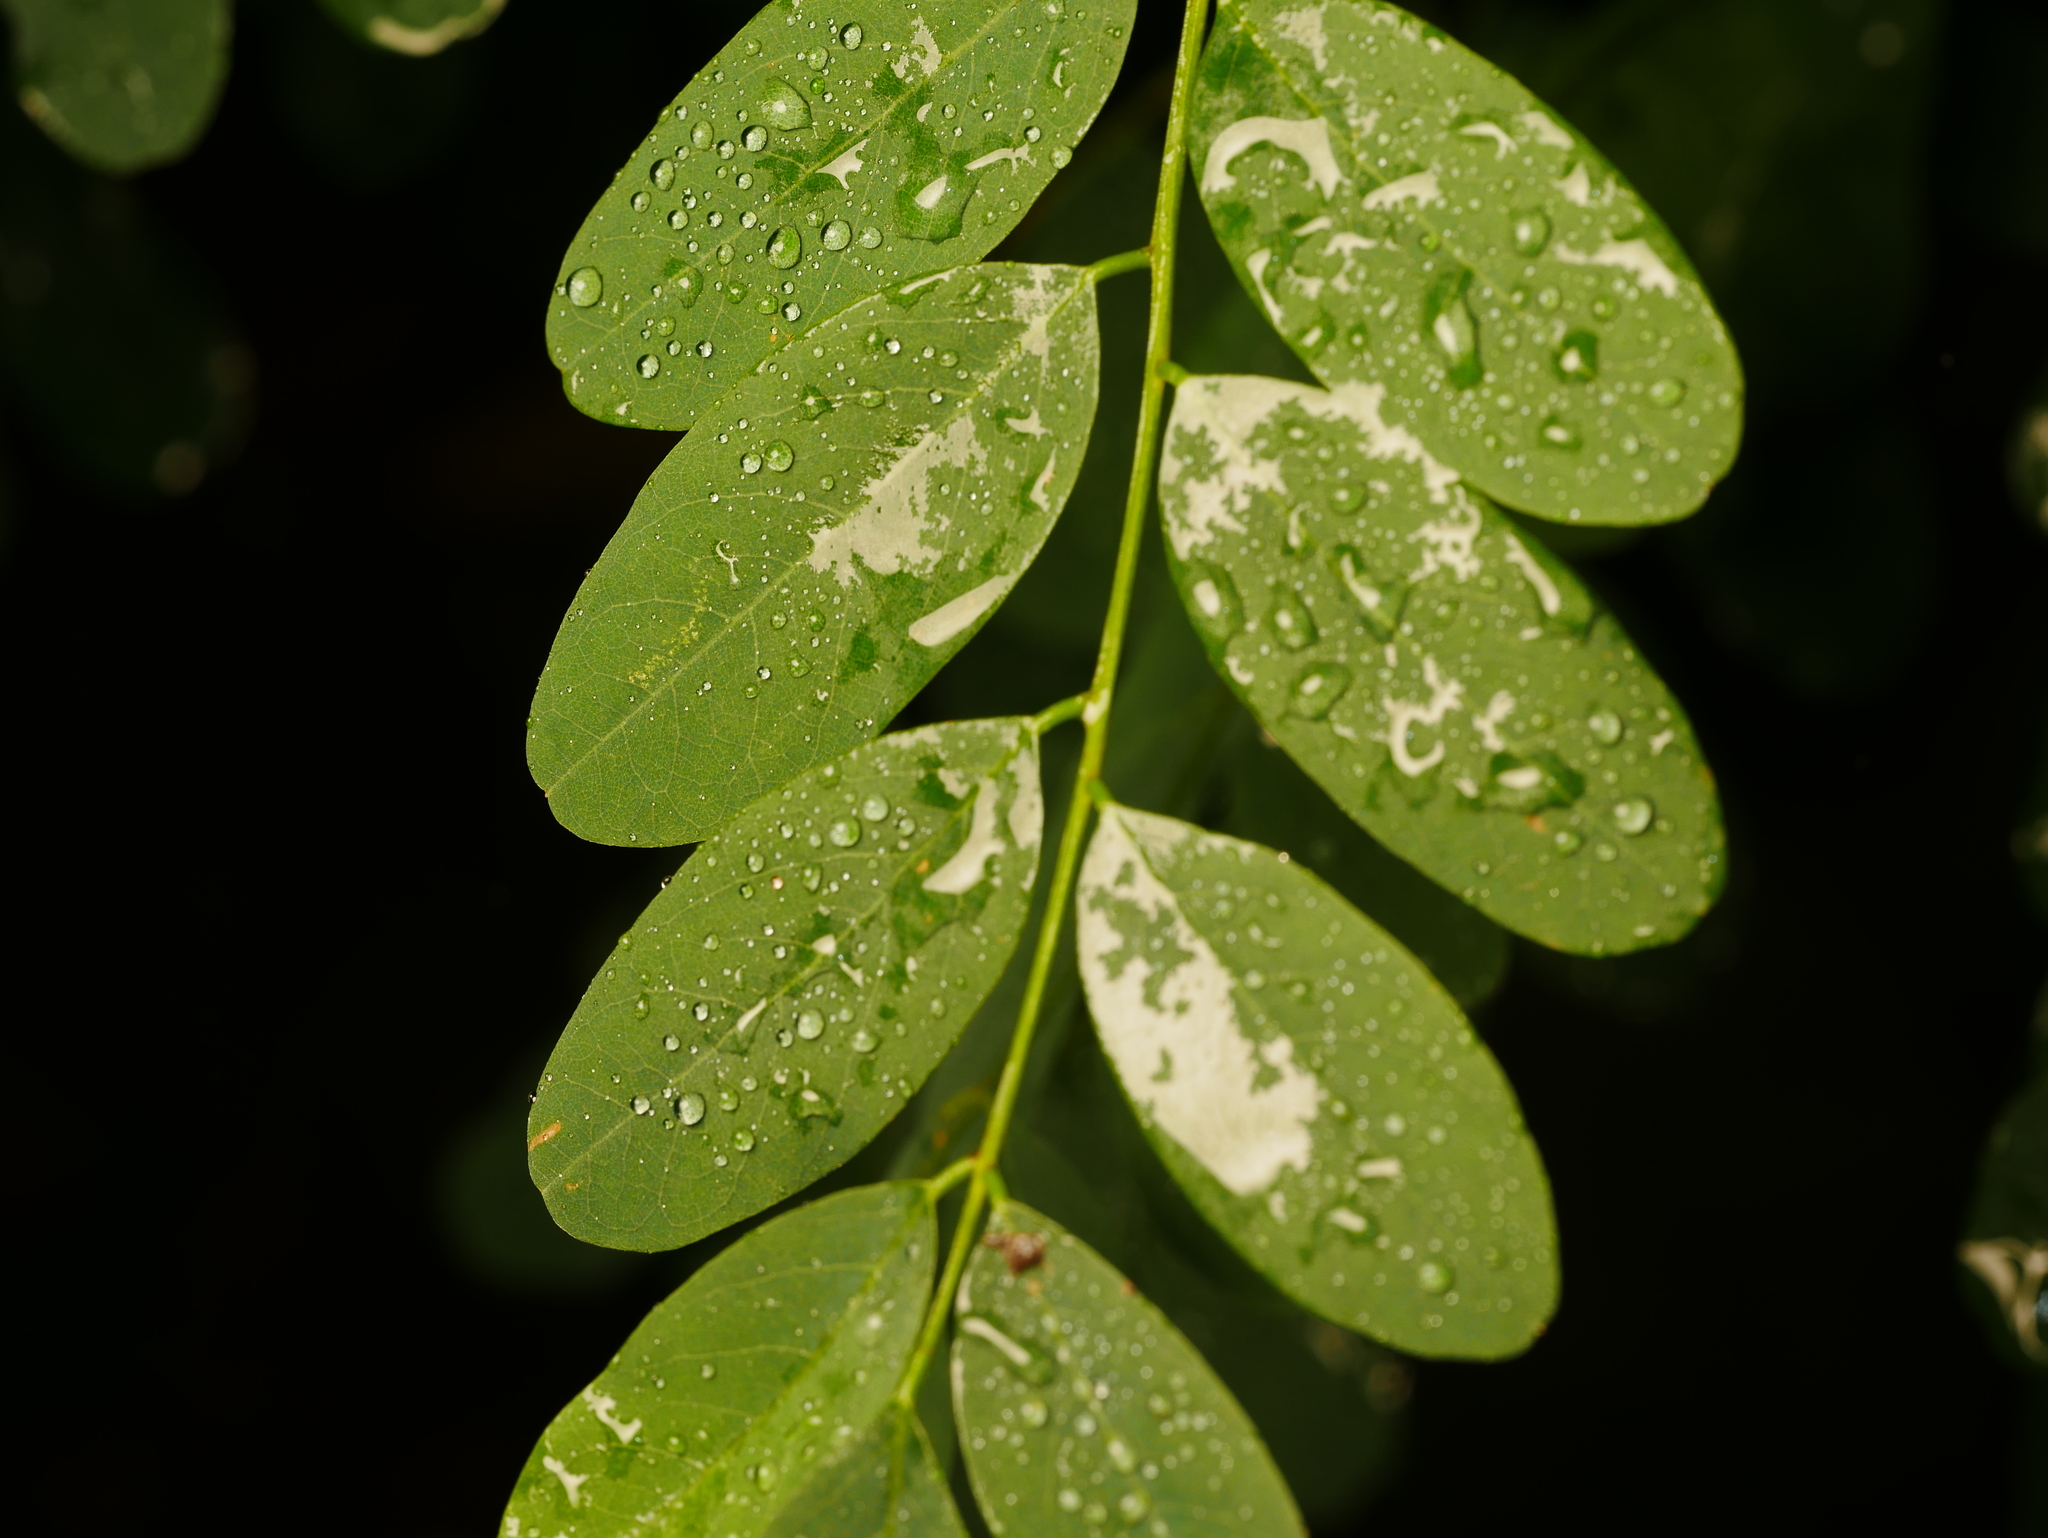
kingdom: Plantae
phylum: Tracheophyta
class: Magnoliopsida
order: Fabales
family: Fabaceae
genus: Robinia
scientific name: Robinia pseudoacacia
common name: Black locust
